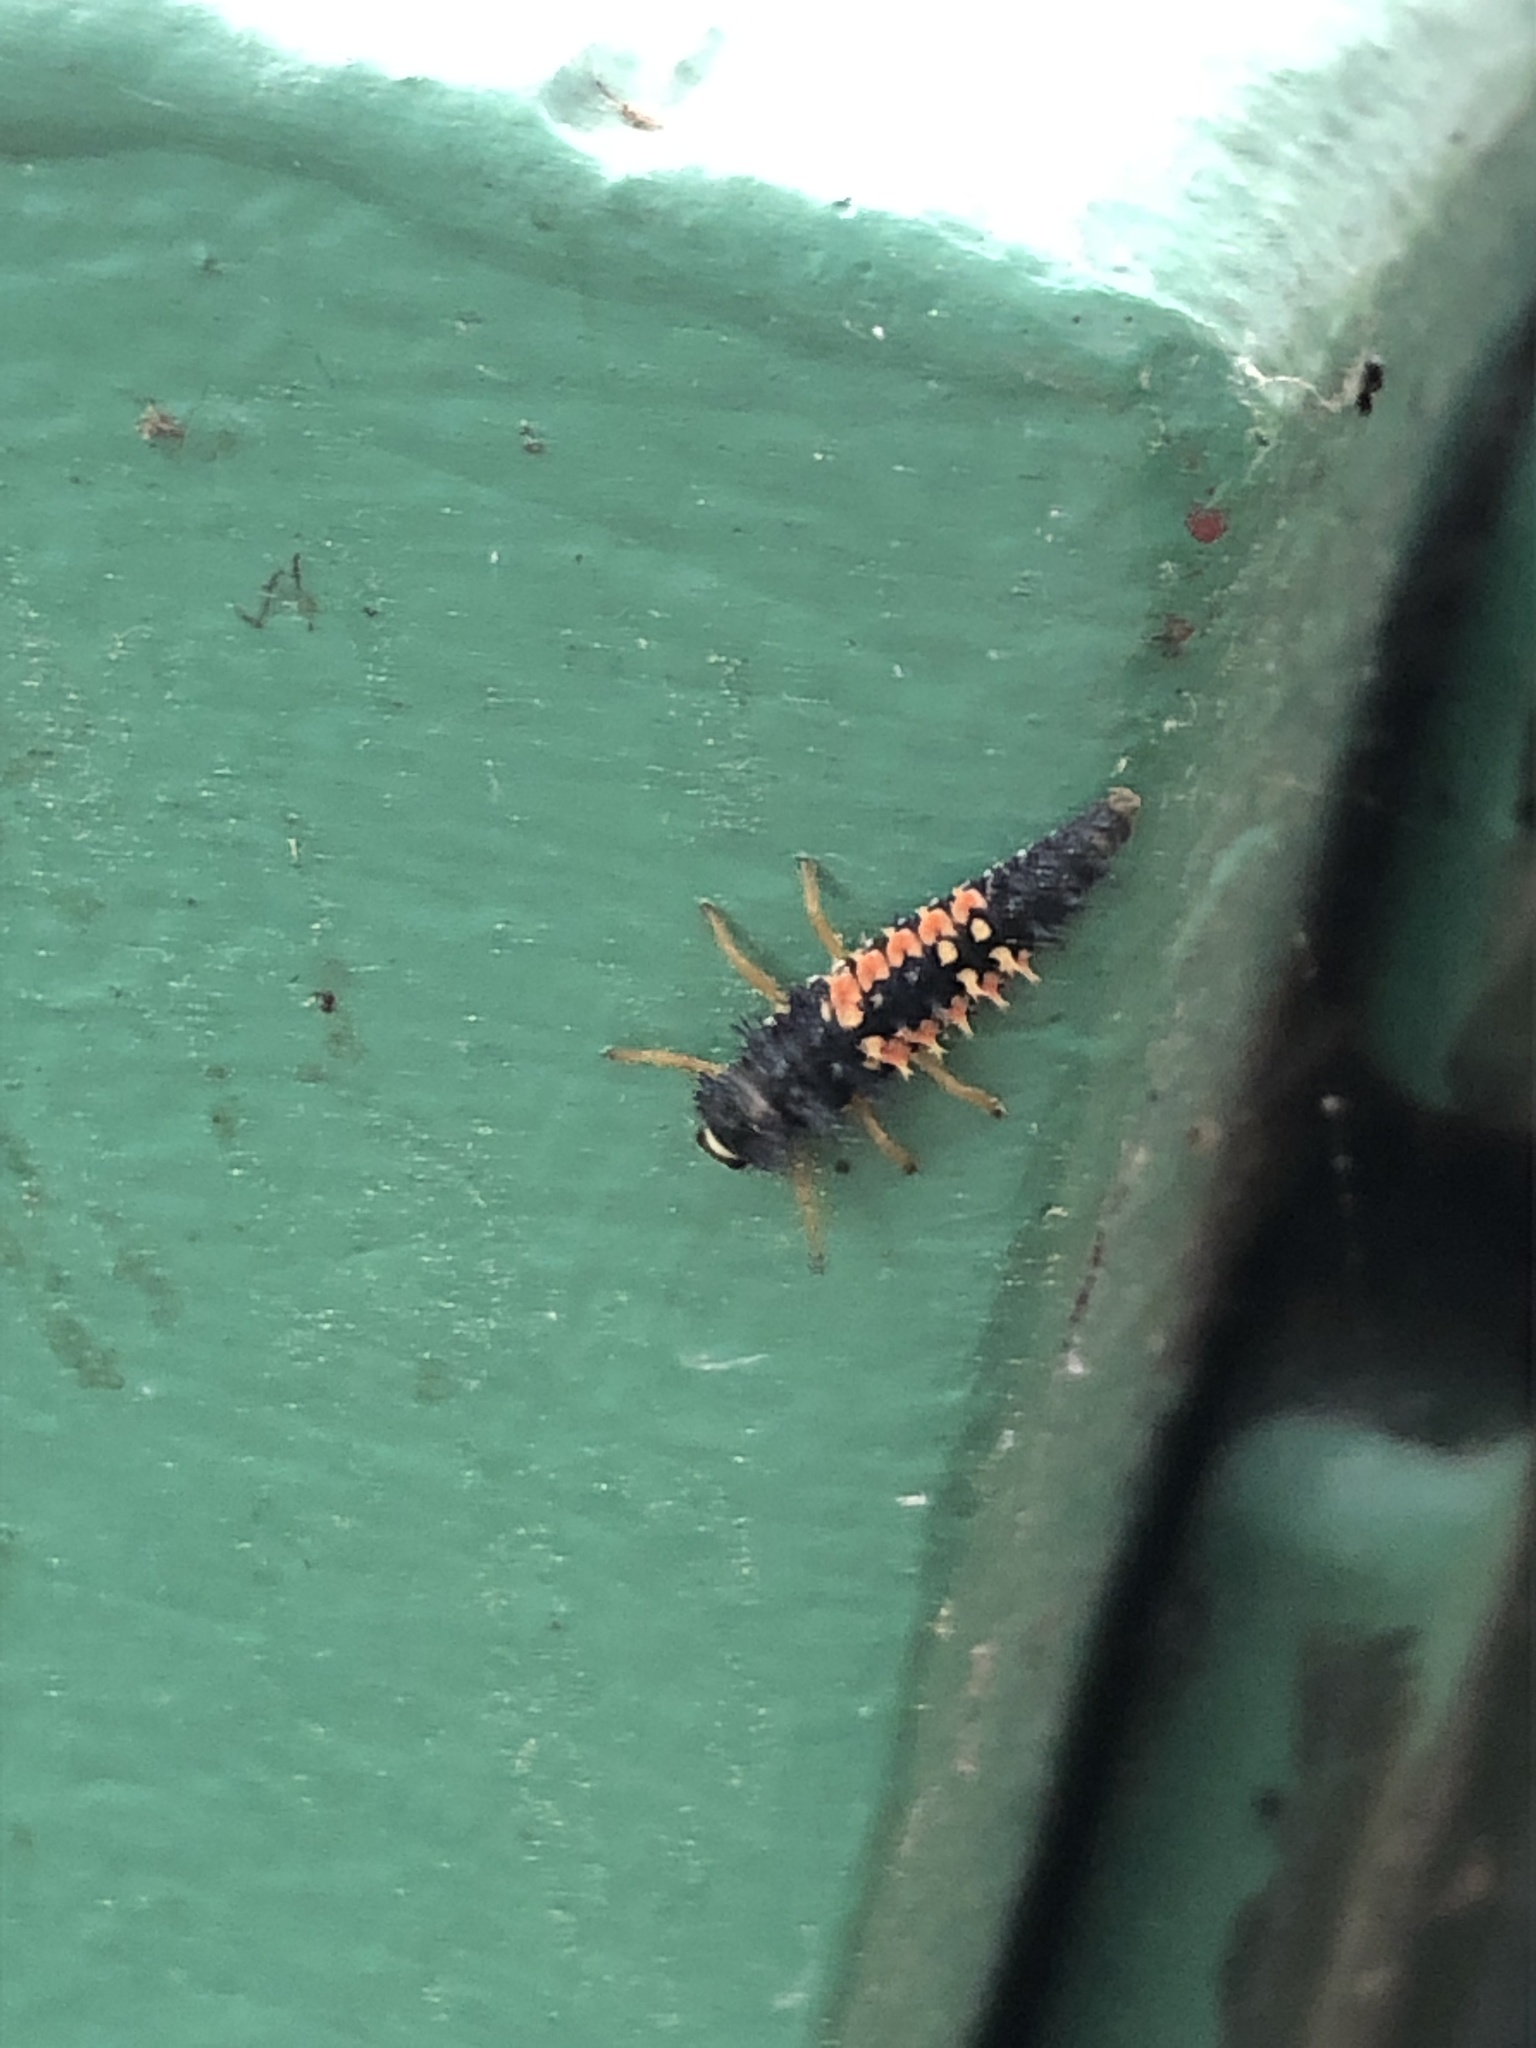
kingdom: Animalia
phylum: Arthropoda
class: Insecta
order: Coleoptera
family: Coccinellidae
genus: Harmonia
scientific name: Harmonia axyridis
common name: Harlequin ladybird
